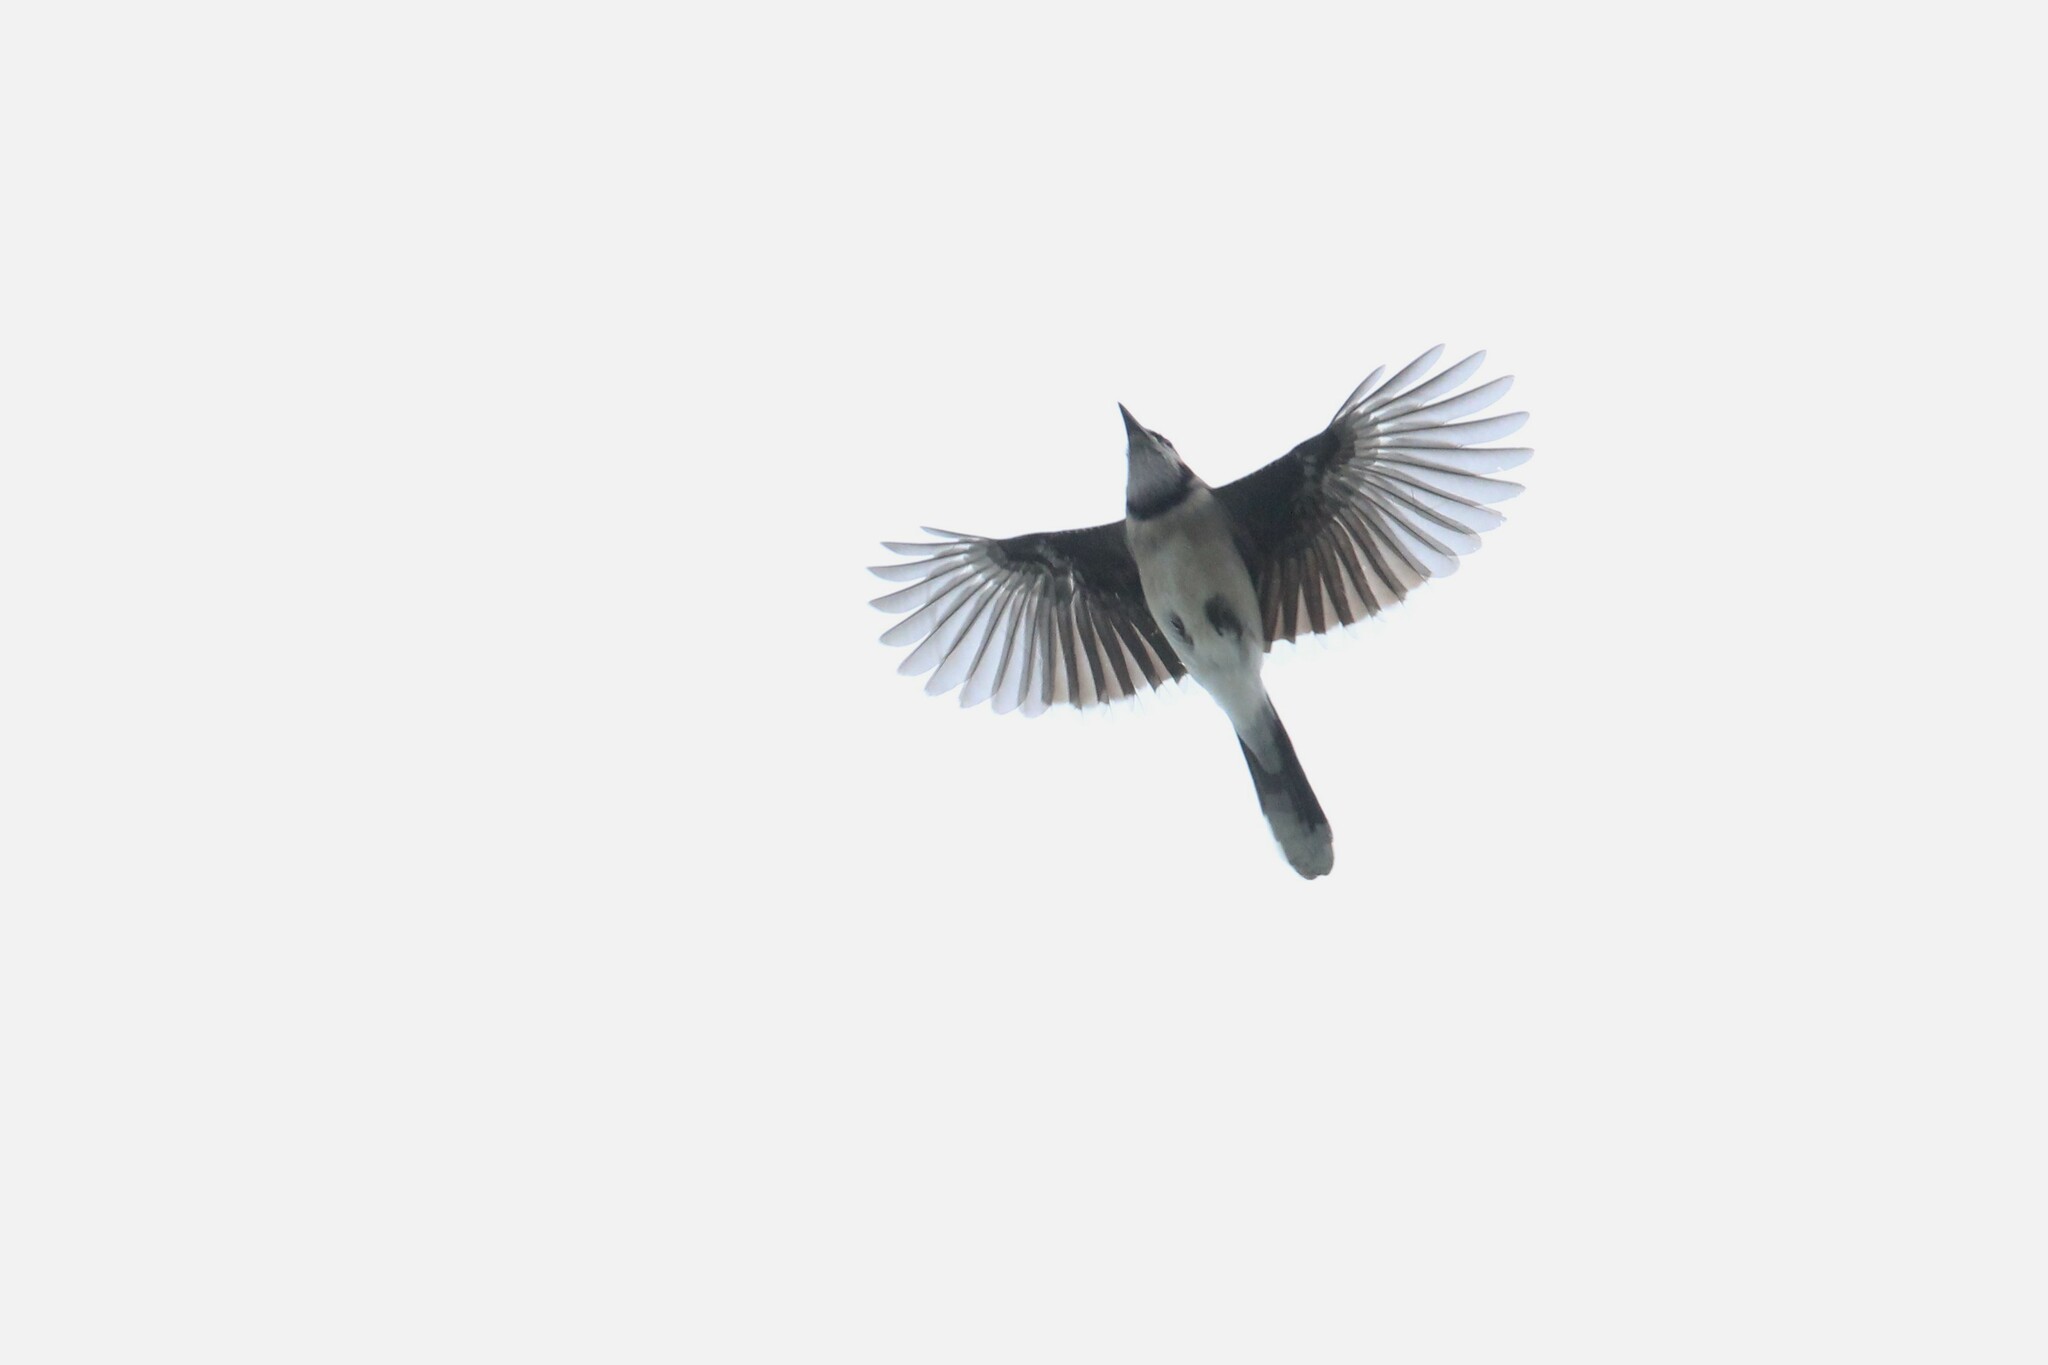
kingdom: Animalia
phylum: Chordata
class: Aves
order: Passeriformes
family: Corvidae
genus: Cyanocitta
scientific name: Cyanocitta cristata
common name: Blue jay
